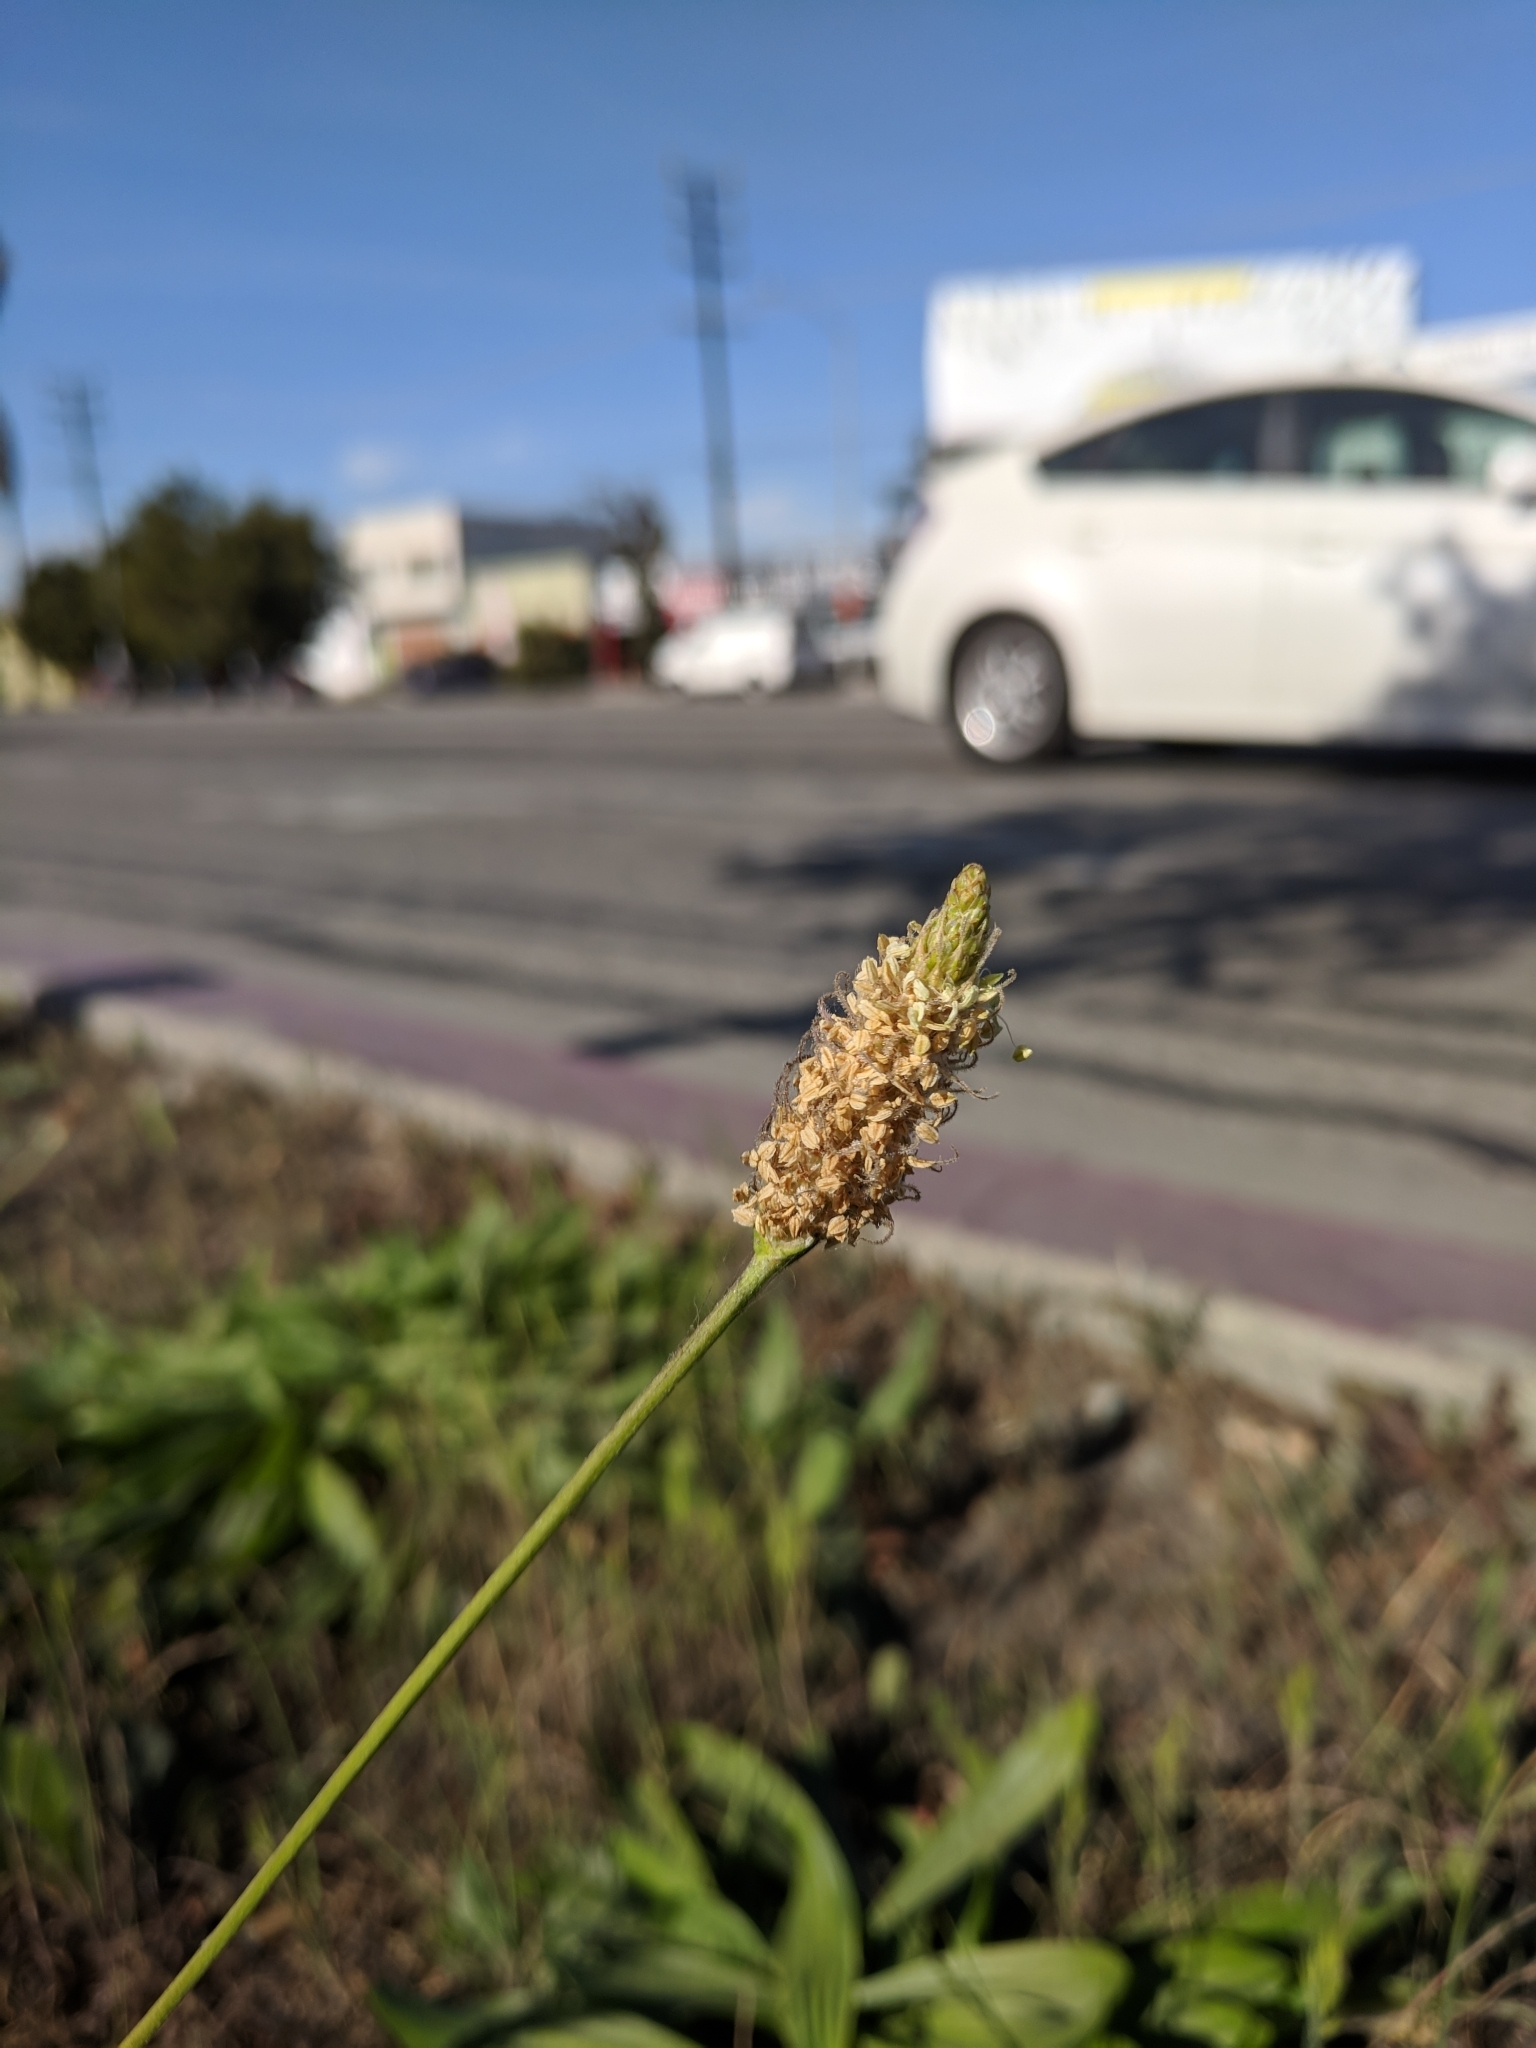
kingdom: Plantae
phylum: Tracheophyta
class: Magnoliopsida
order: Lamiales
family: Plantaginaceae
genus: Plantago
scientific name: Plantago lanceolata
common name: Ribwort plantain
